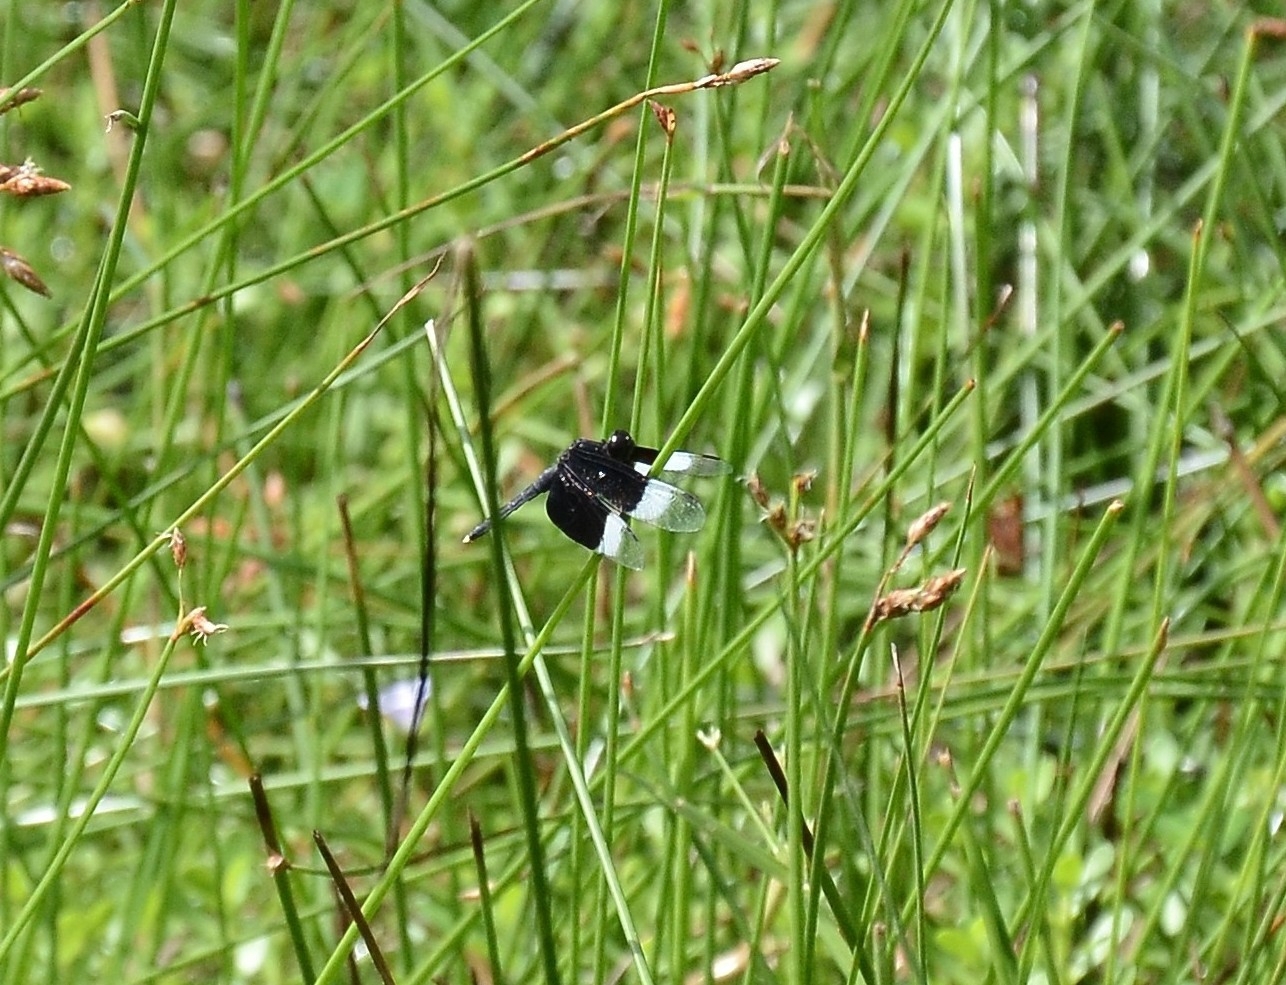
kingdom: Animalia
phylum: Arthropoda
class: Insecta
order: Odonata
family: Libellulidae
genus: Neurothemis
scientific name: Neurothemis tullia
